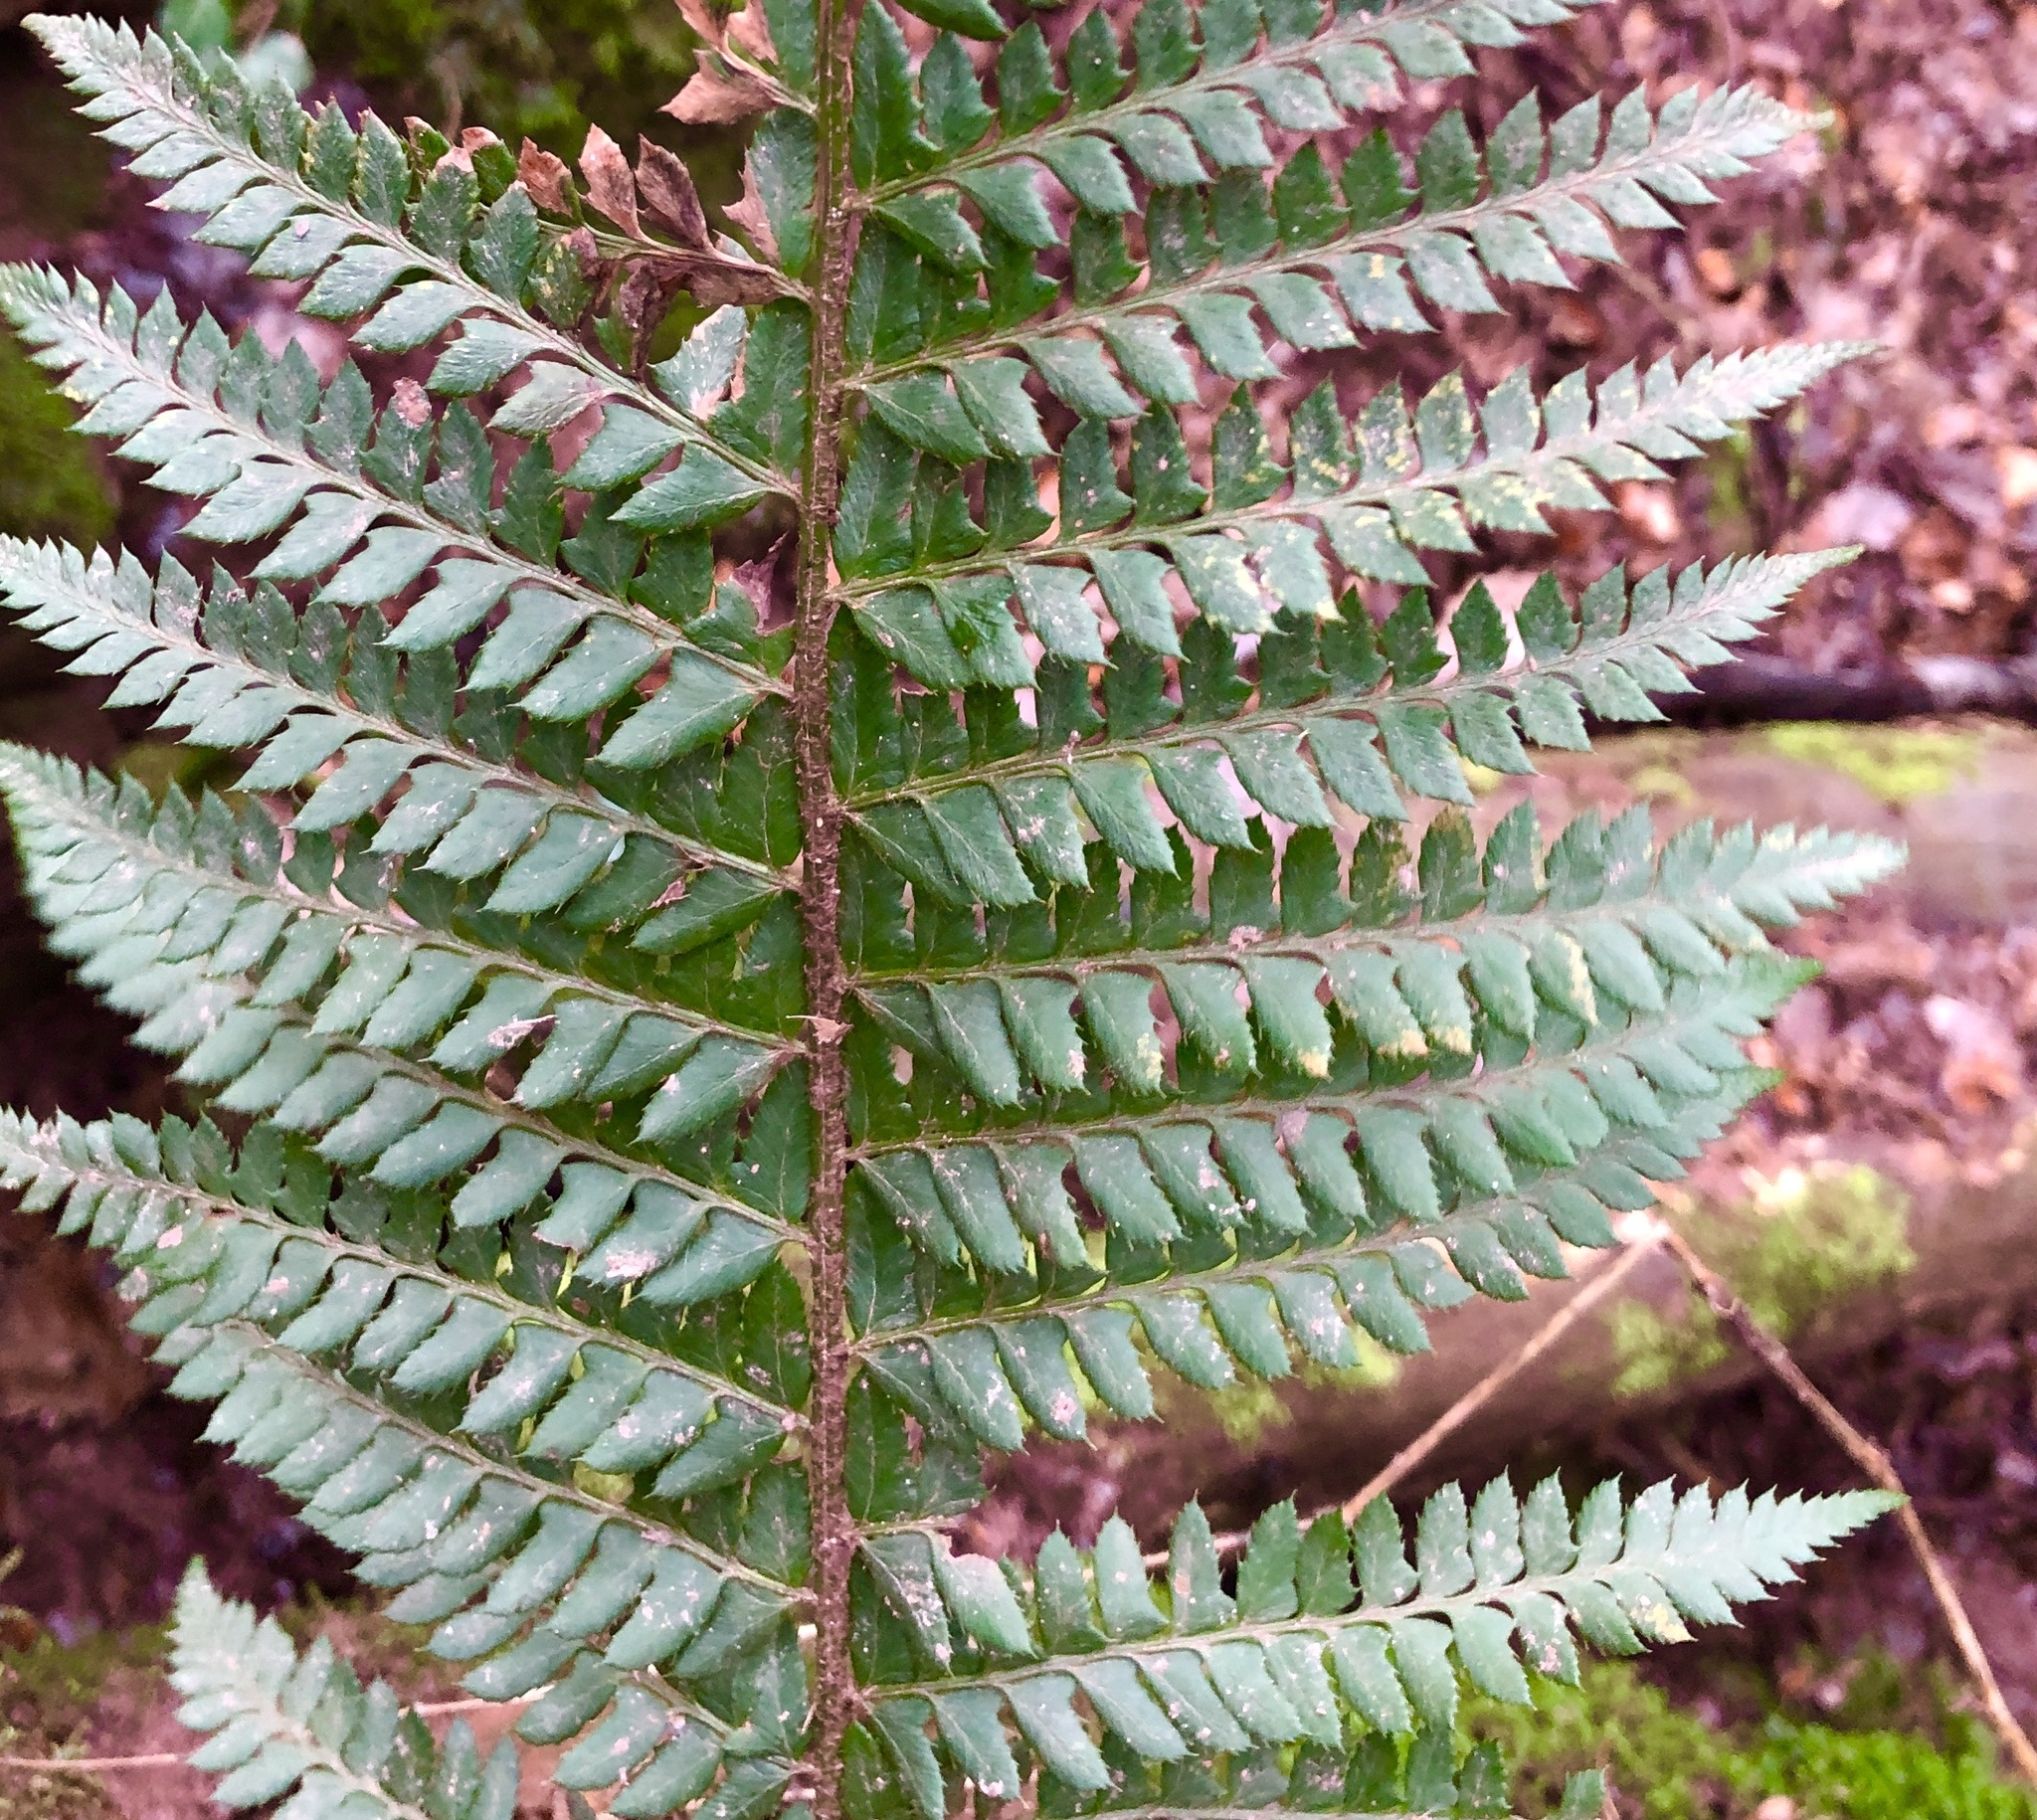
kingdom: Plantae
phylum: Tracheophyta
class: Polypodiopsida
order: Polypodiales
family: Dryopteridaceae
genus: Polystichum
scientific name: Polystichum aculeatum
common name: Hard shield-fern
